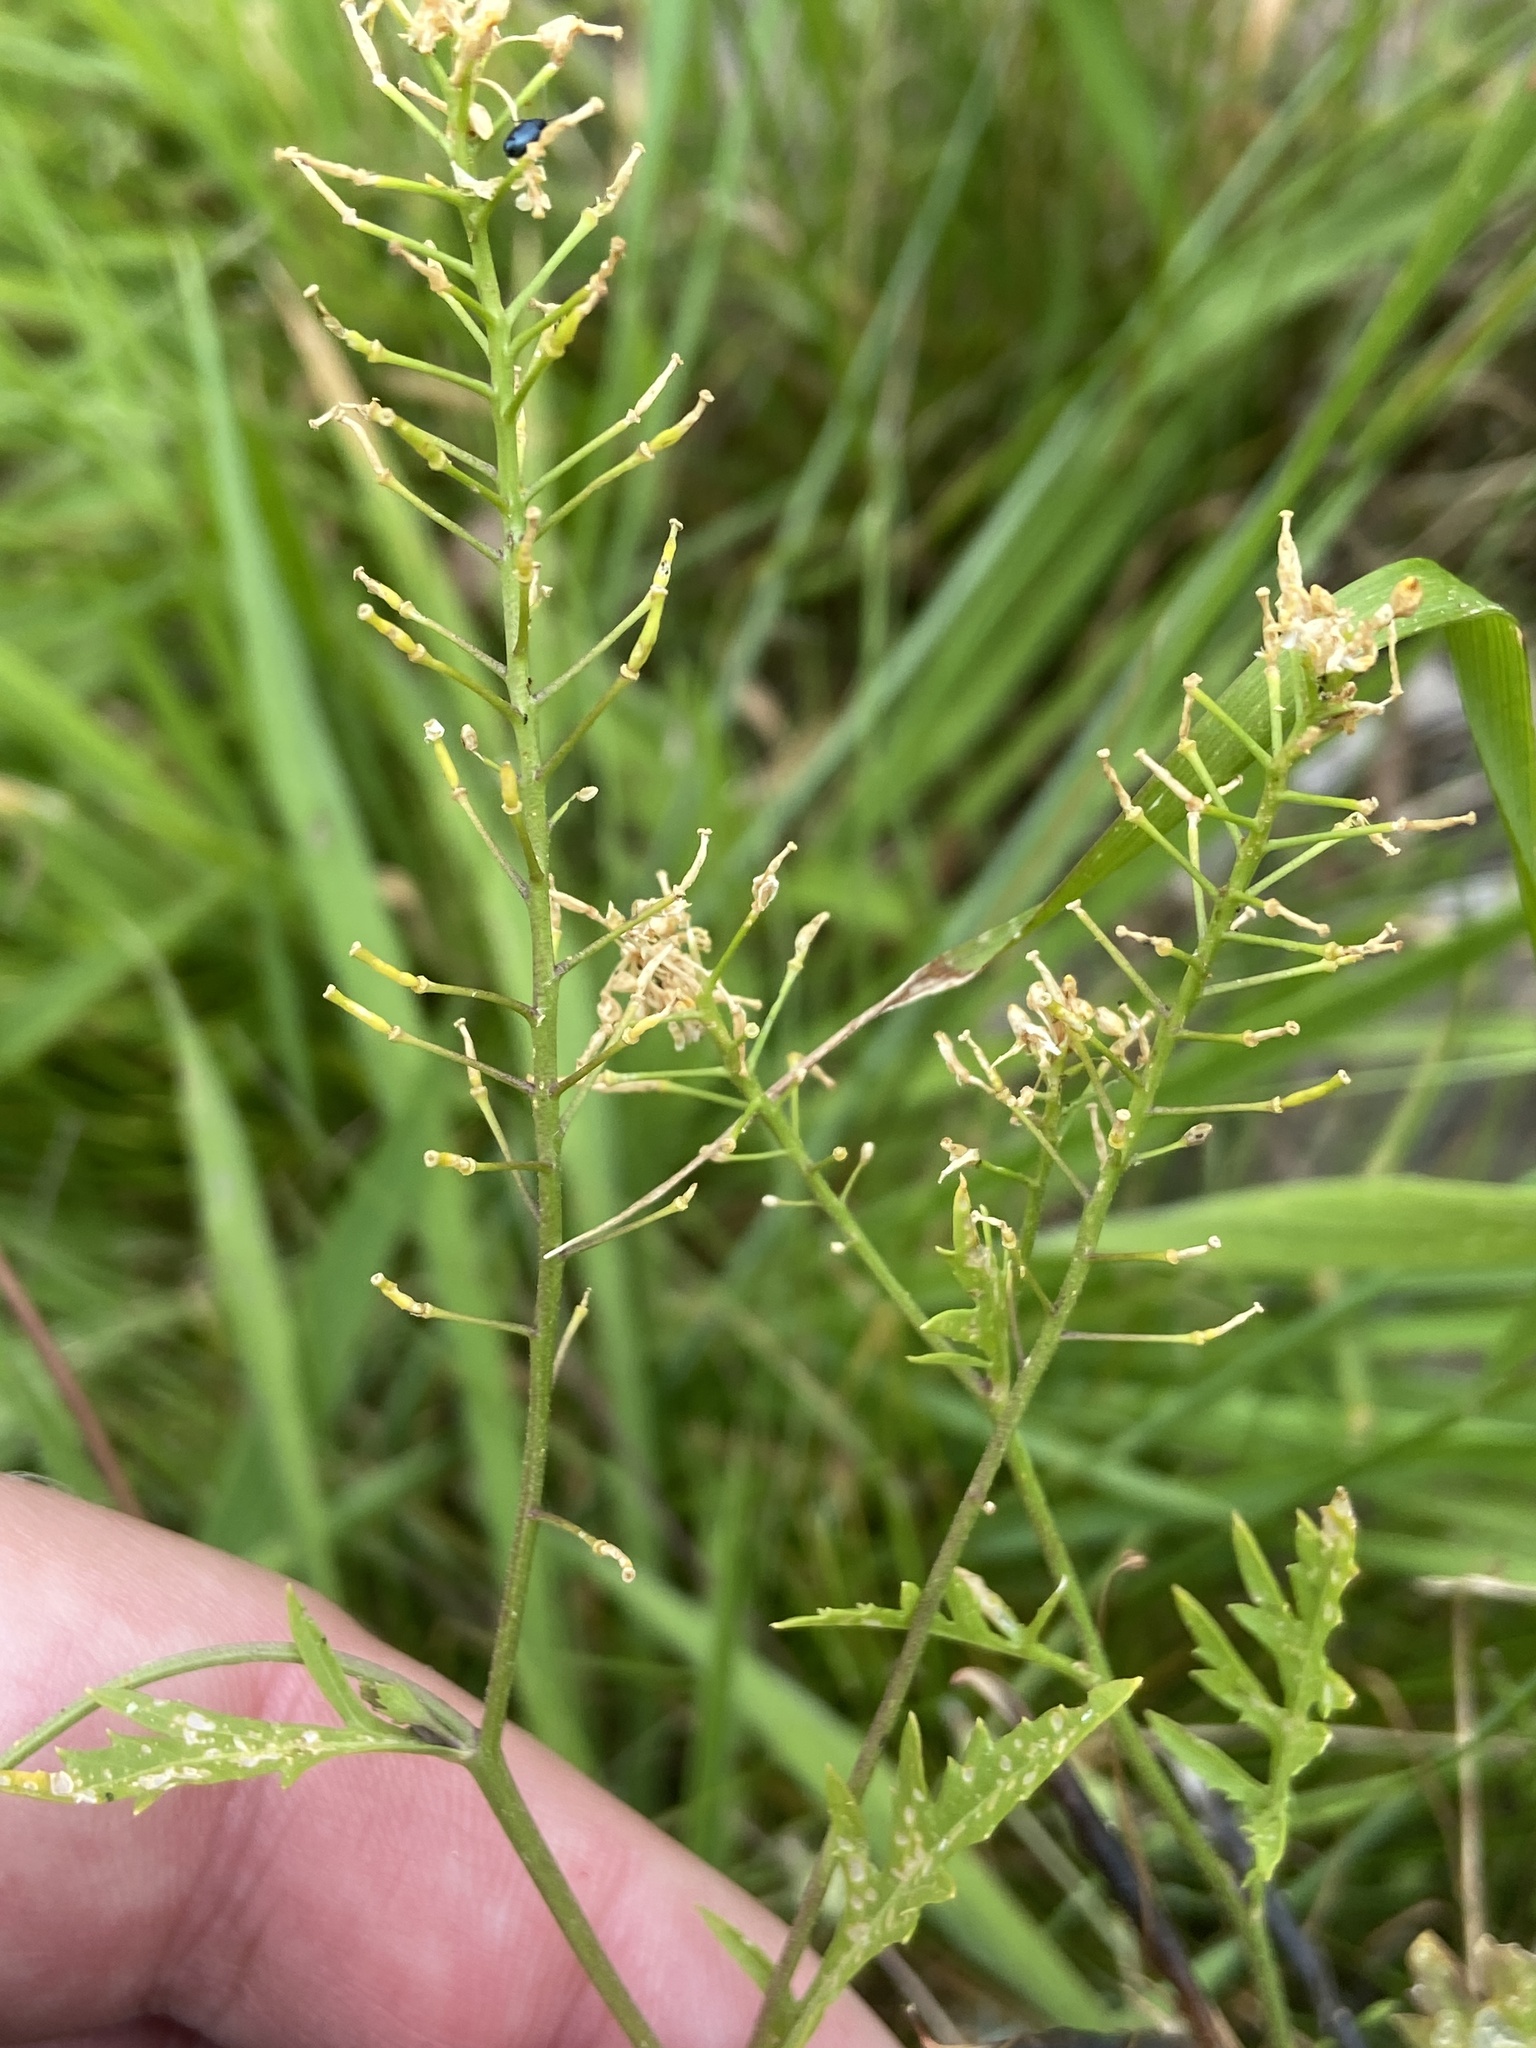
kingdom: Plantae
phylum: Tracheophyta
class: Magnoliopsida
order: Brassicales
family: Brassicaceae
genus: Rorippa
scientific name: Rorippa palustris
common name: Marsh yellow-cress
